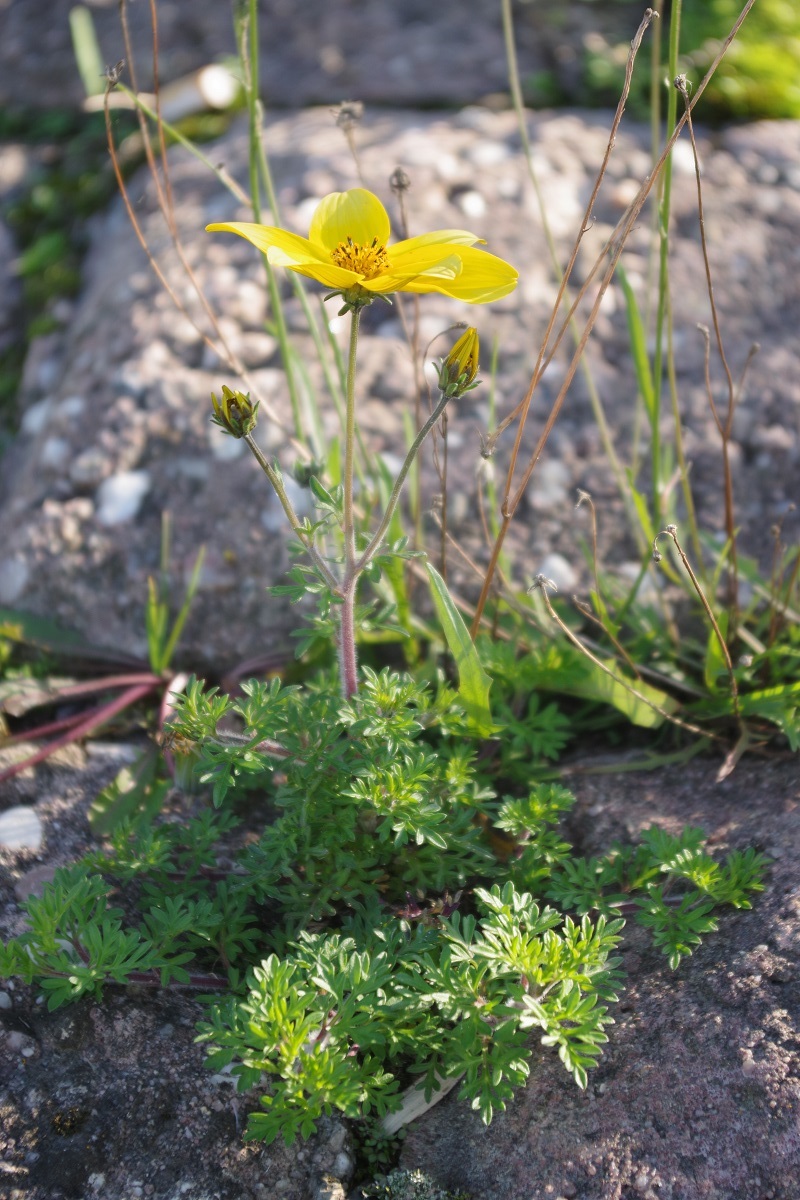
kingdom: Plantae
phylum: Tracheophyta
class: Magnoliopsida
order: Asterales
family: Asteraceae
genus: Bidens
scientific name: Bidens triplinervia
